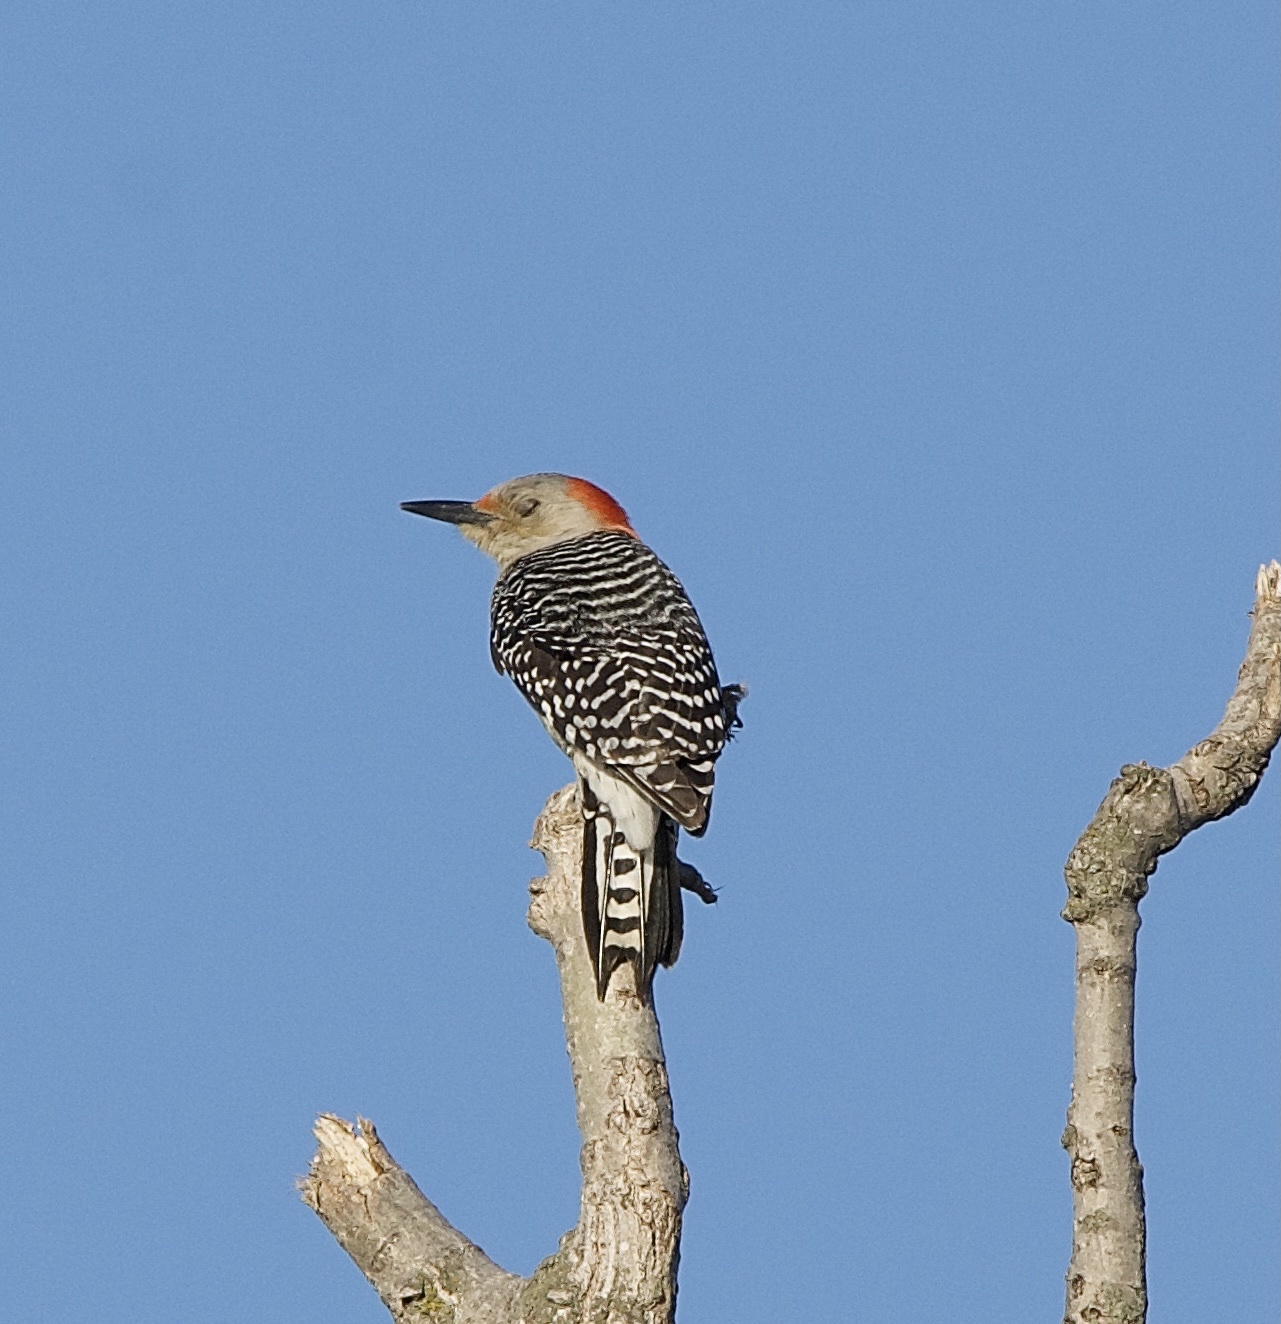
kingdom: Animalia
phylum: Chordata
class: Aves
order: Piciformes
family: Picidae
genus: Melanerpes
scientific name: Melanerpes carolinus
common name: Red-bellied woodpecker
